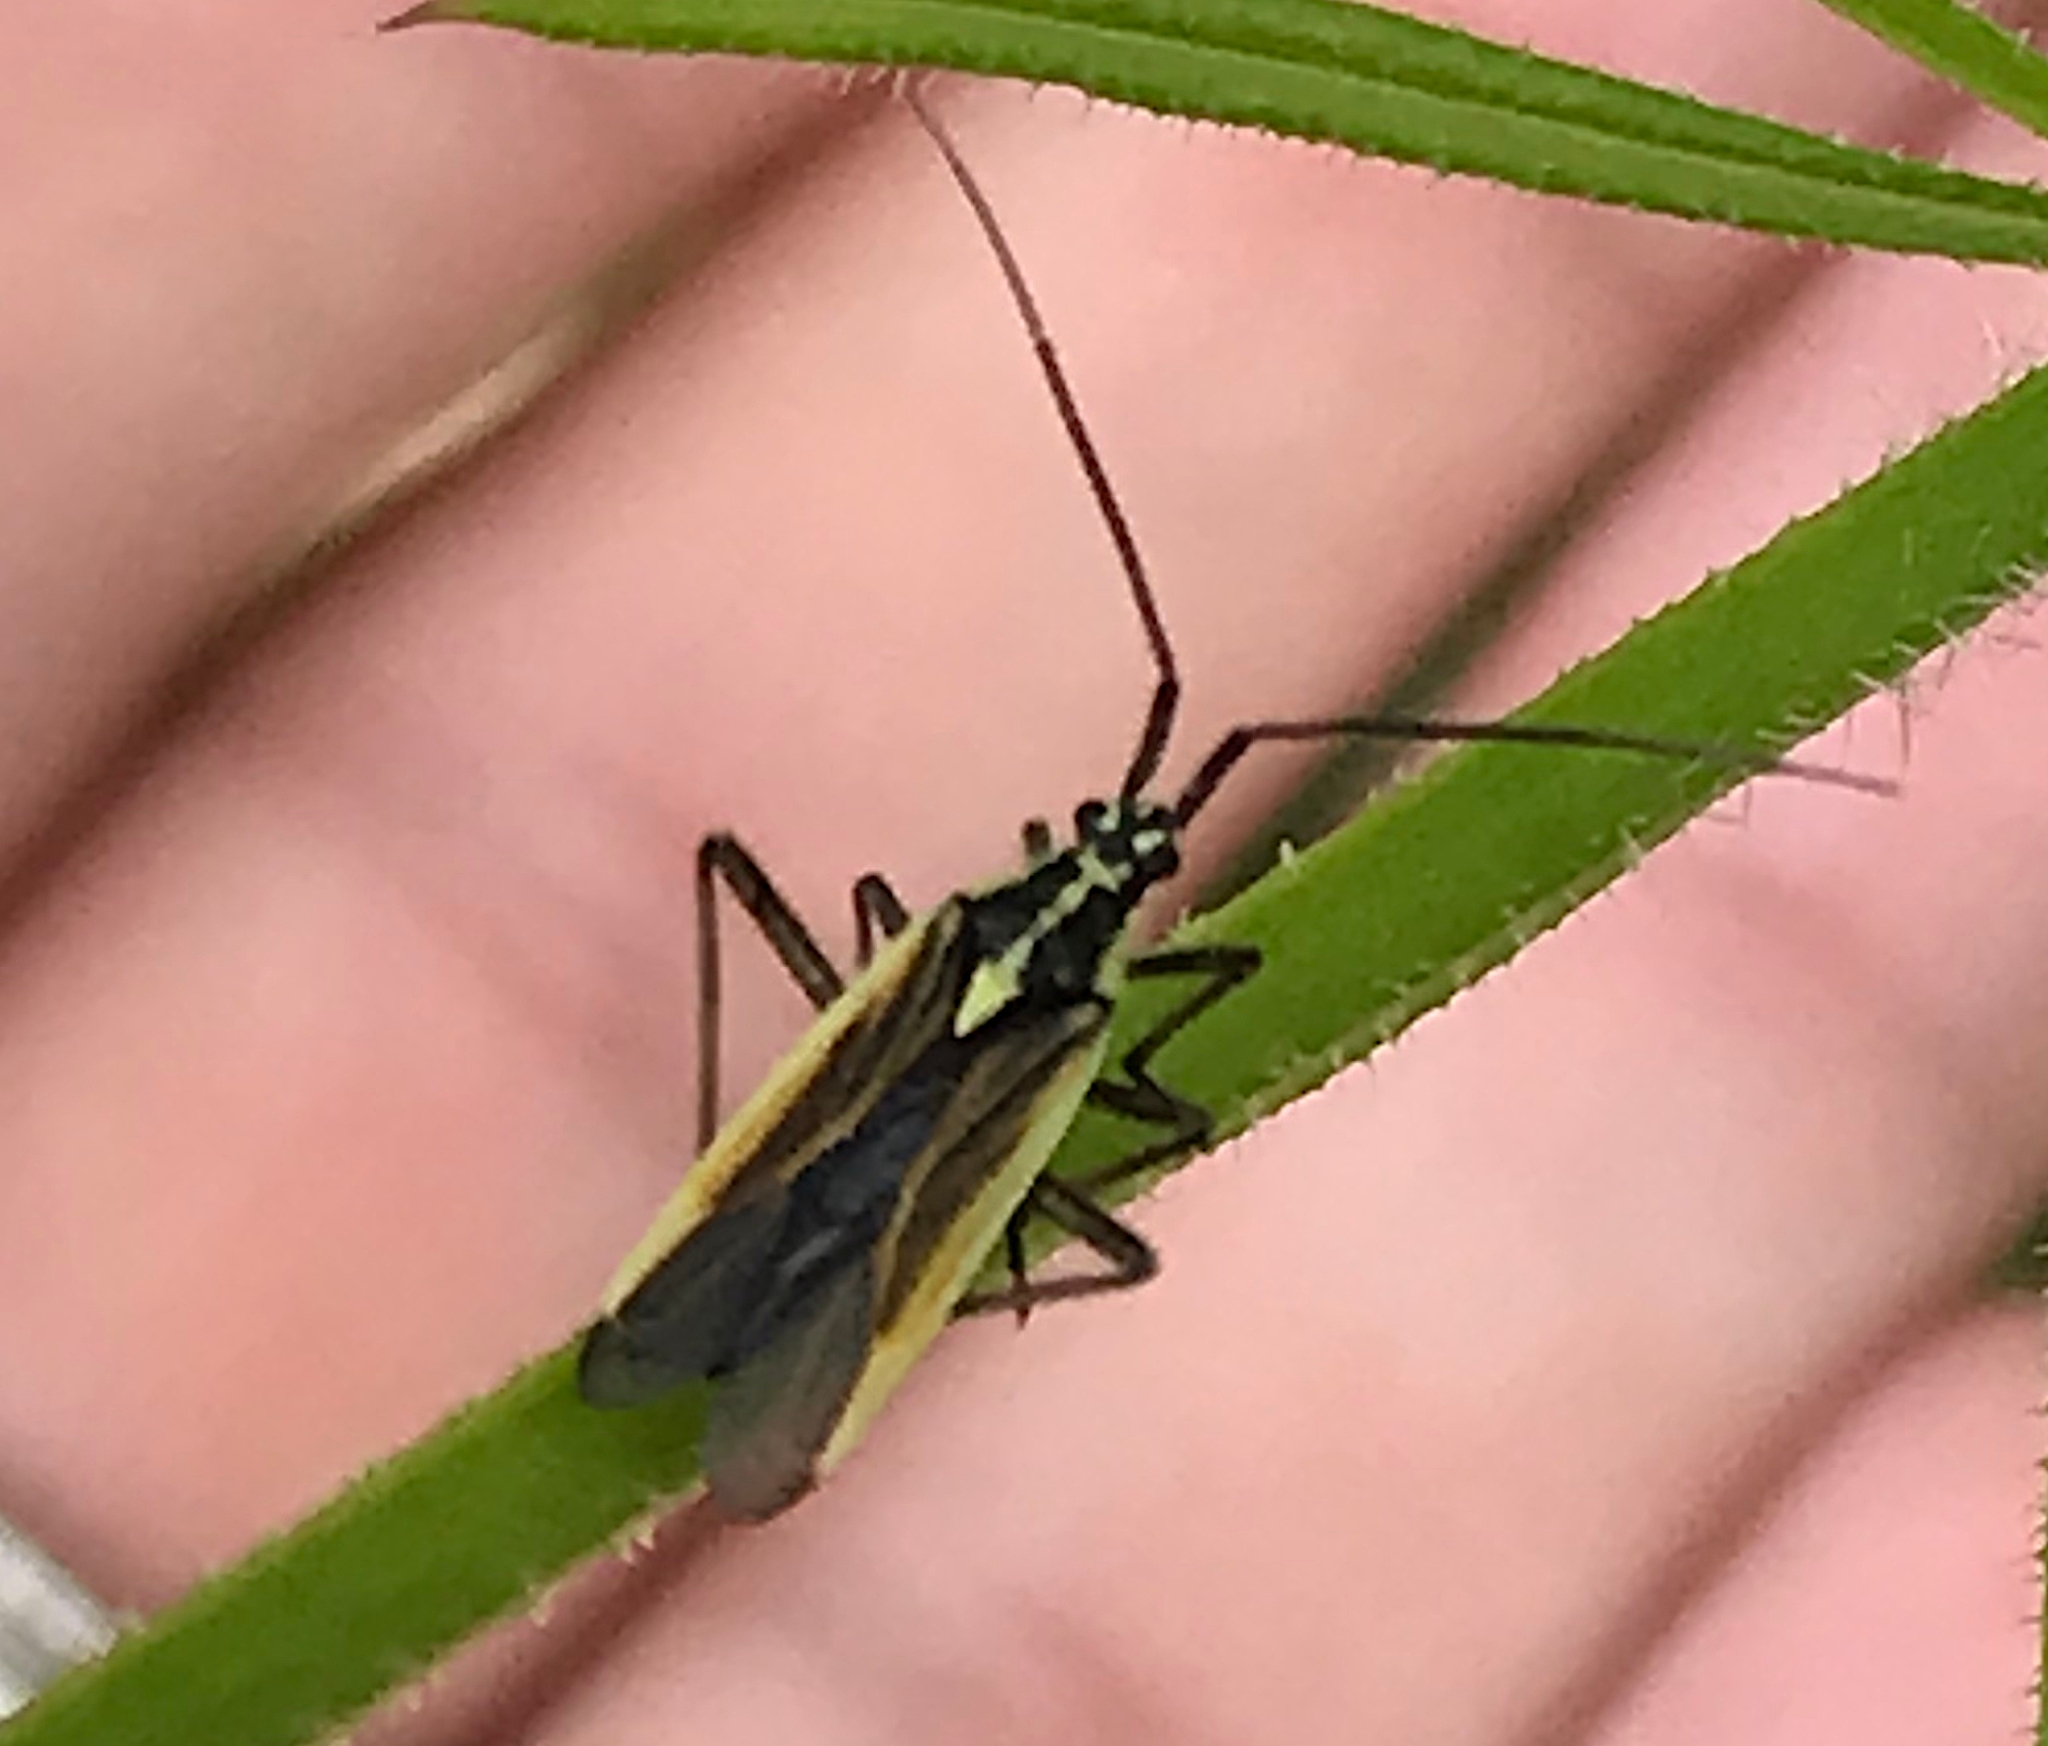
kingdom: Animalia
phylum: Arthropoda
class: Insecta
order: Hemiptera
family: Miridae
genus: Leptopterna
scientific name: Leptopterna dolabrata
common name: Meadow plant bug
